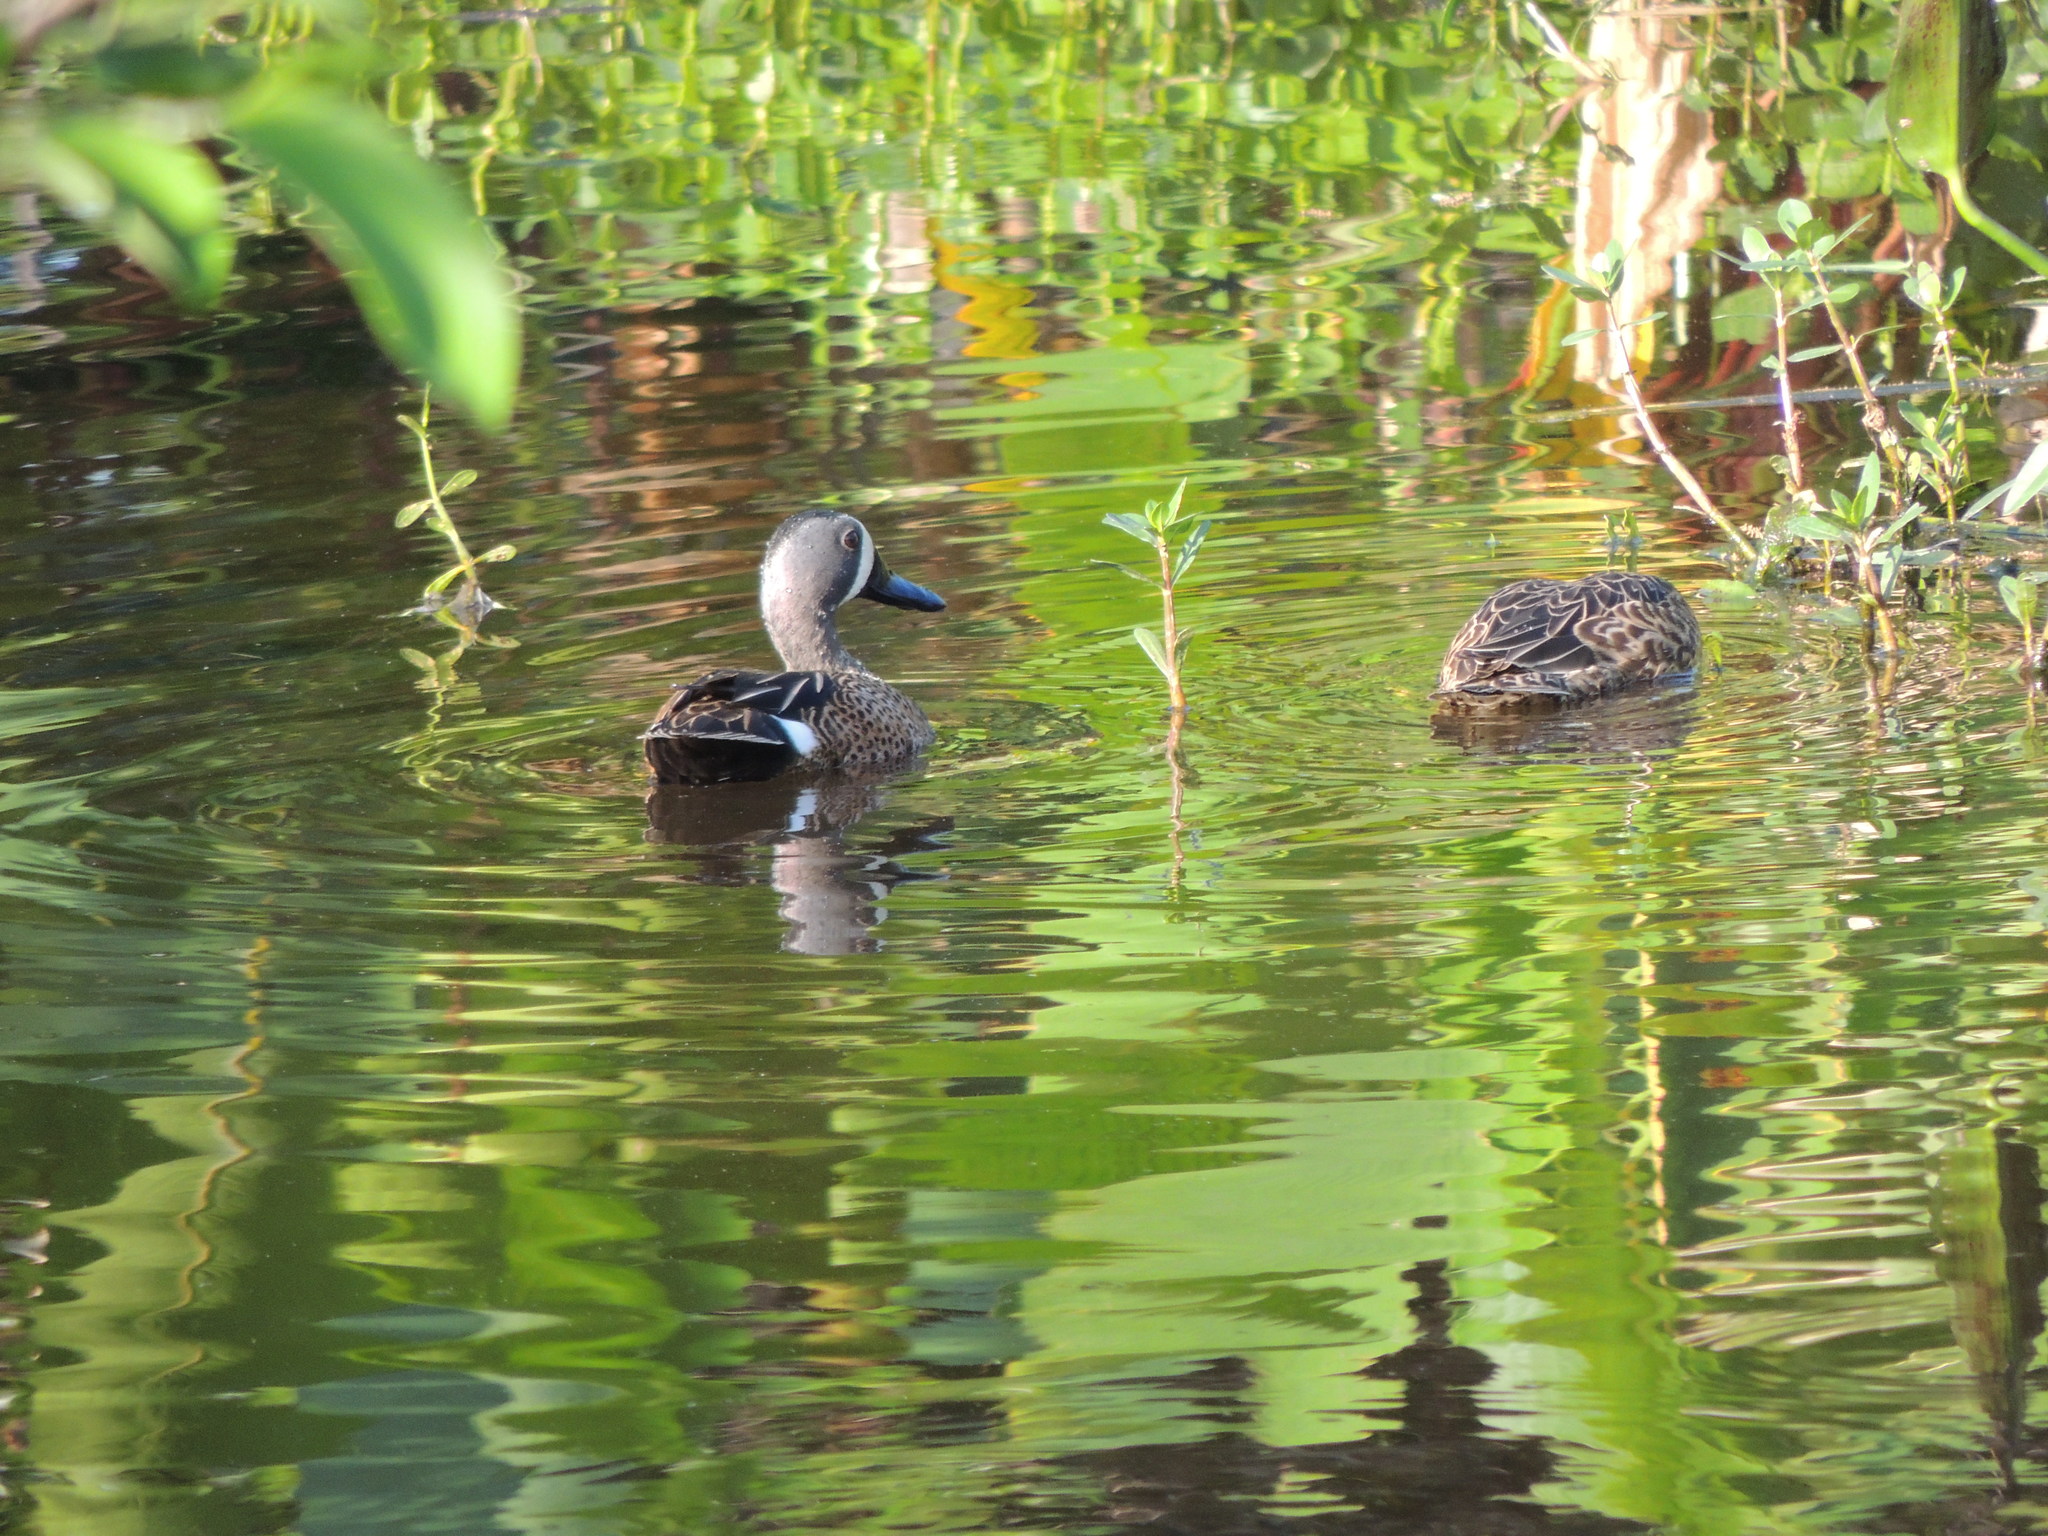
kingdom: Animalia
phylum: Chordata
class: Aves
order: Anseriformes
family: Anatidae
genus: Spatula
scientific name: Spatula discors
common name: Blue-winged teal
